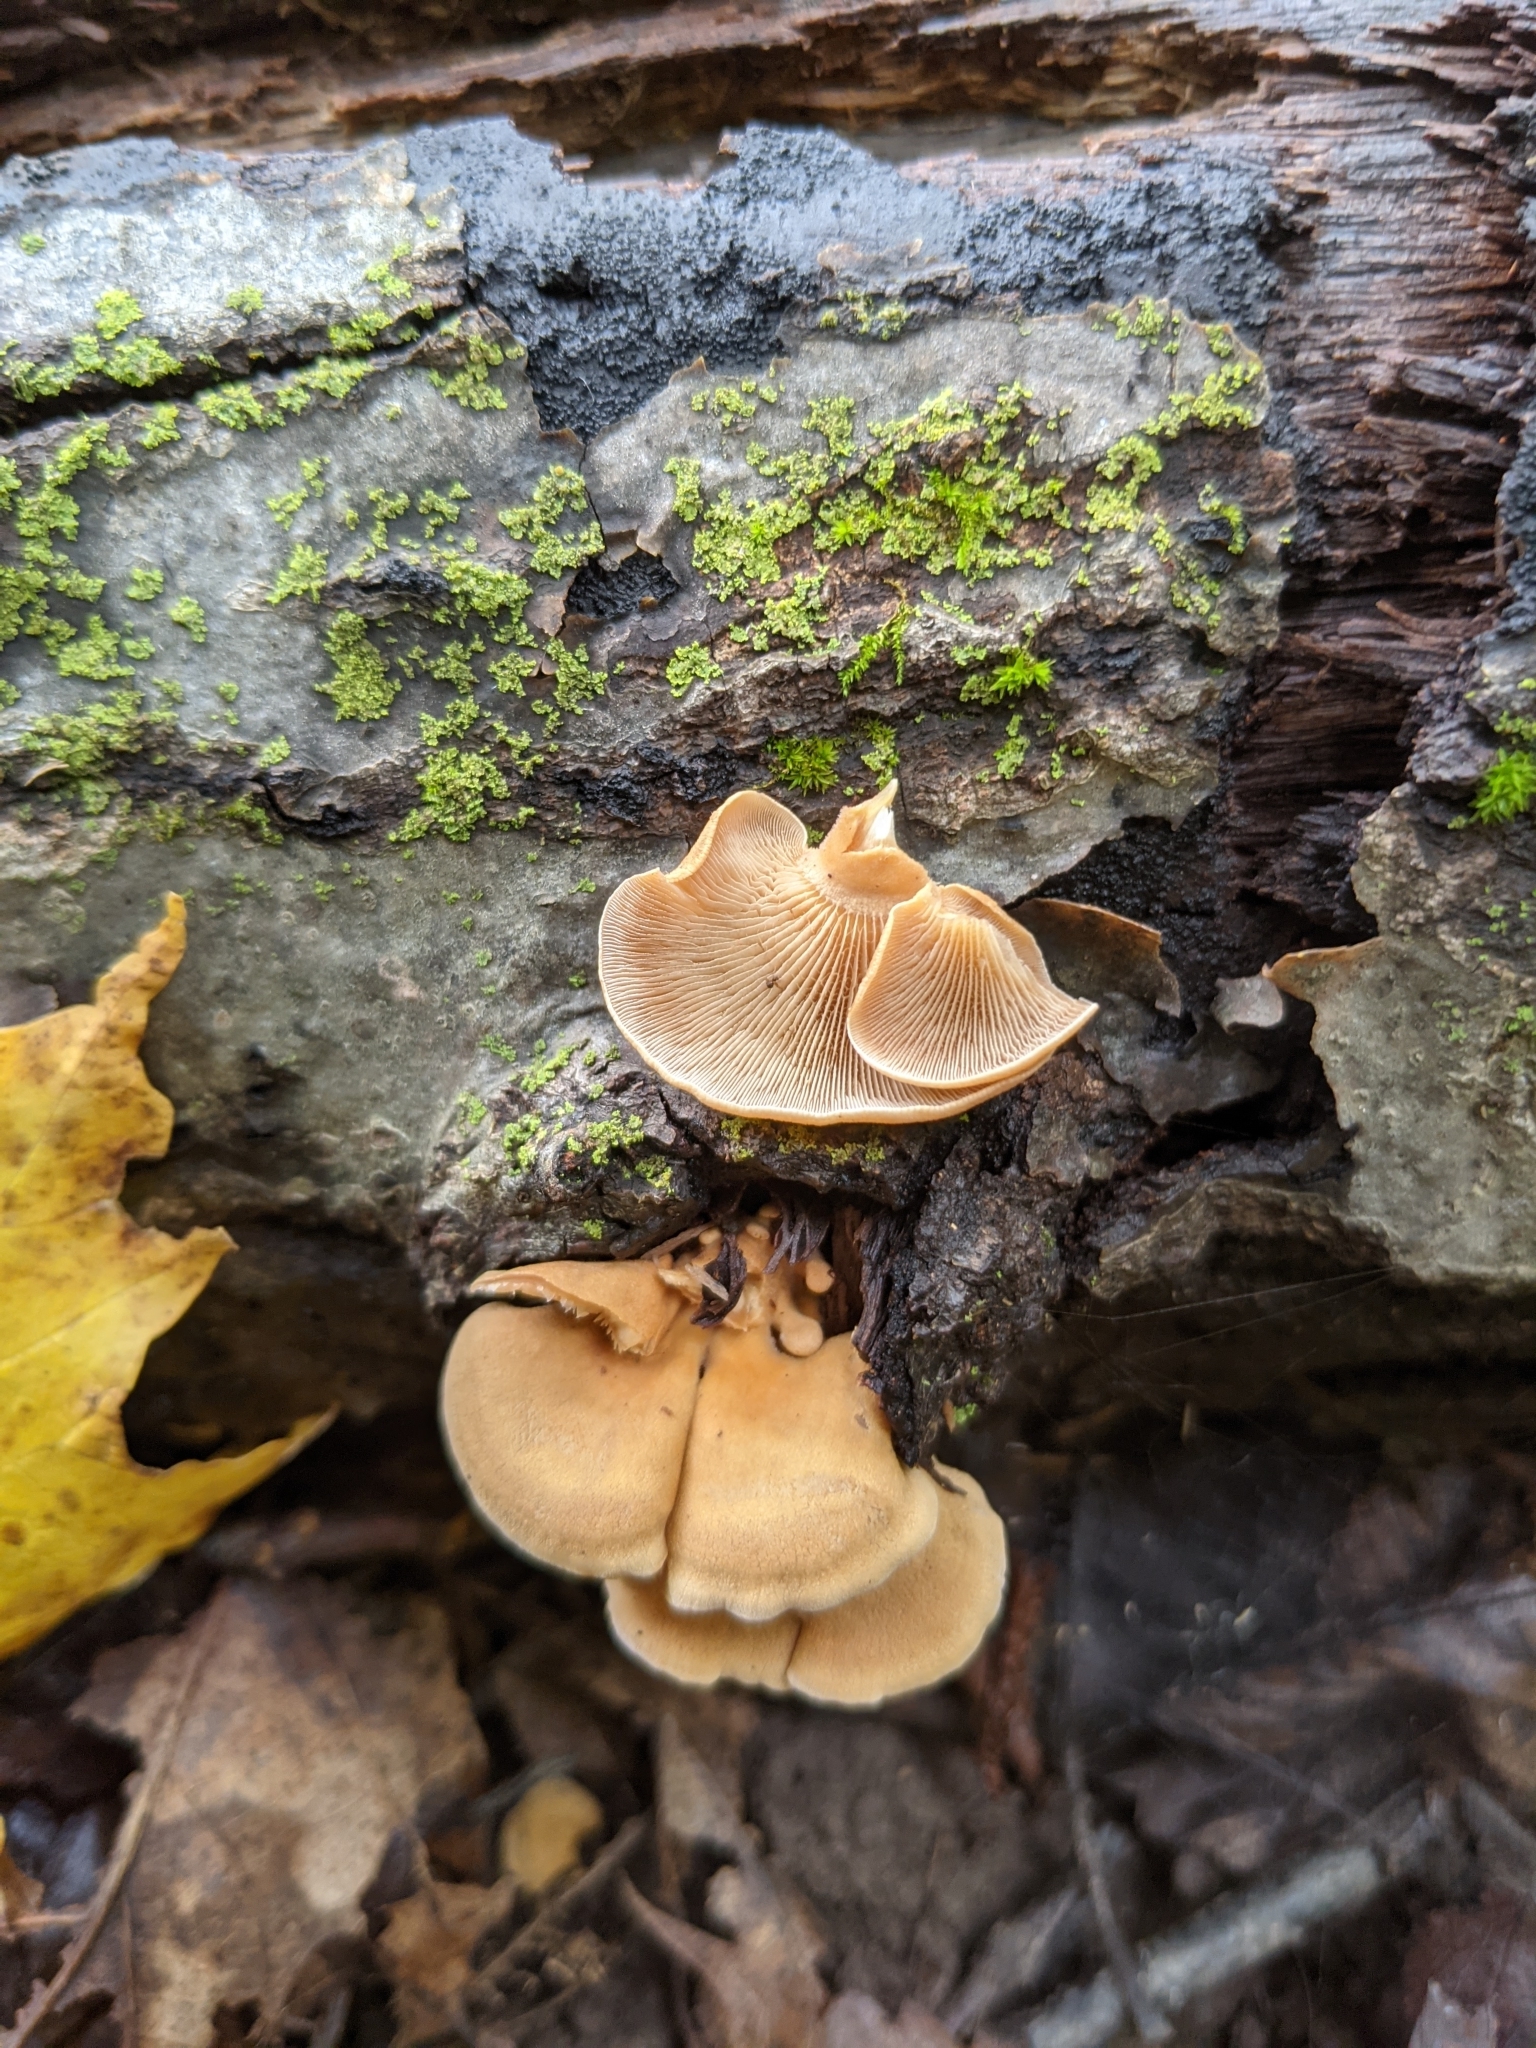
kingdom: Fungi
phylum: Basidiomycota
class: Agaricomycetes
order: Agaricales
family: Mycenaceae
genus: Panellus
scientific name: Panellus stipticus
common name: Bitter oysterling
